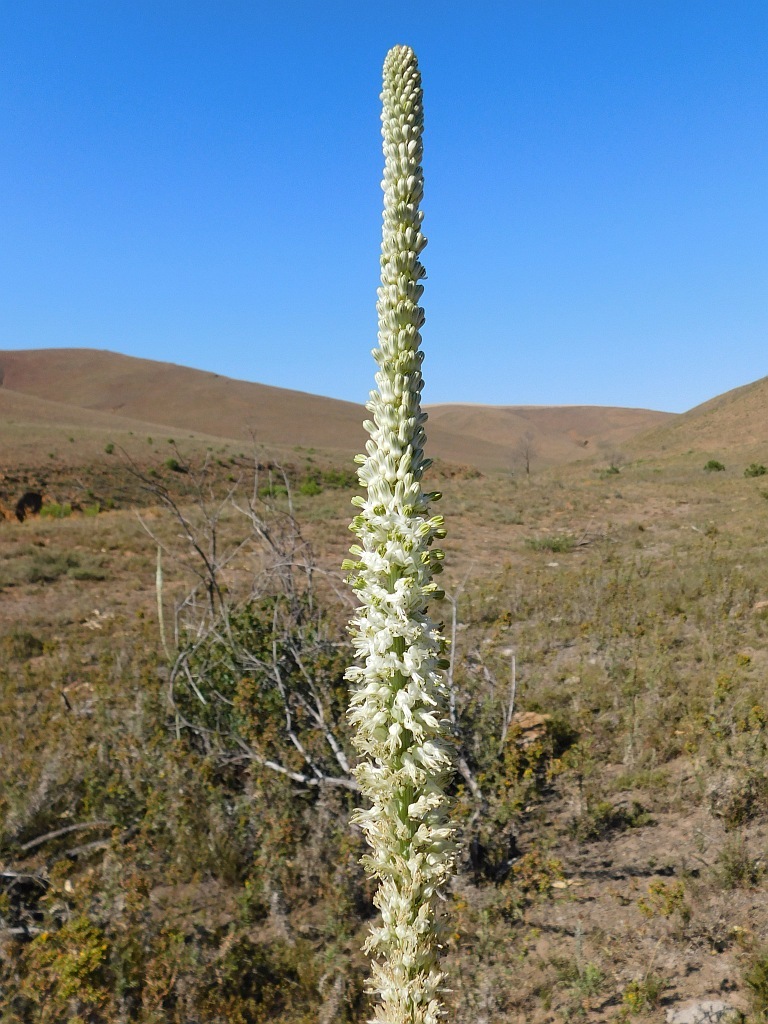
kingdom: Plantae
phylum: Tracheophyta
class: Liliopsida
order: Asparagales
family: Asparagaceae
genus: Drimia
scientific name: Drimia capensis
